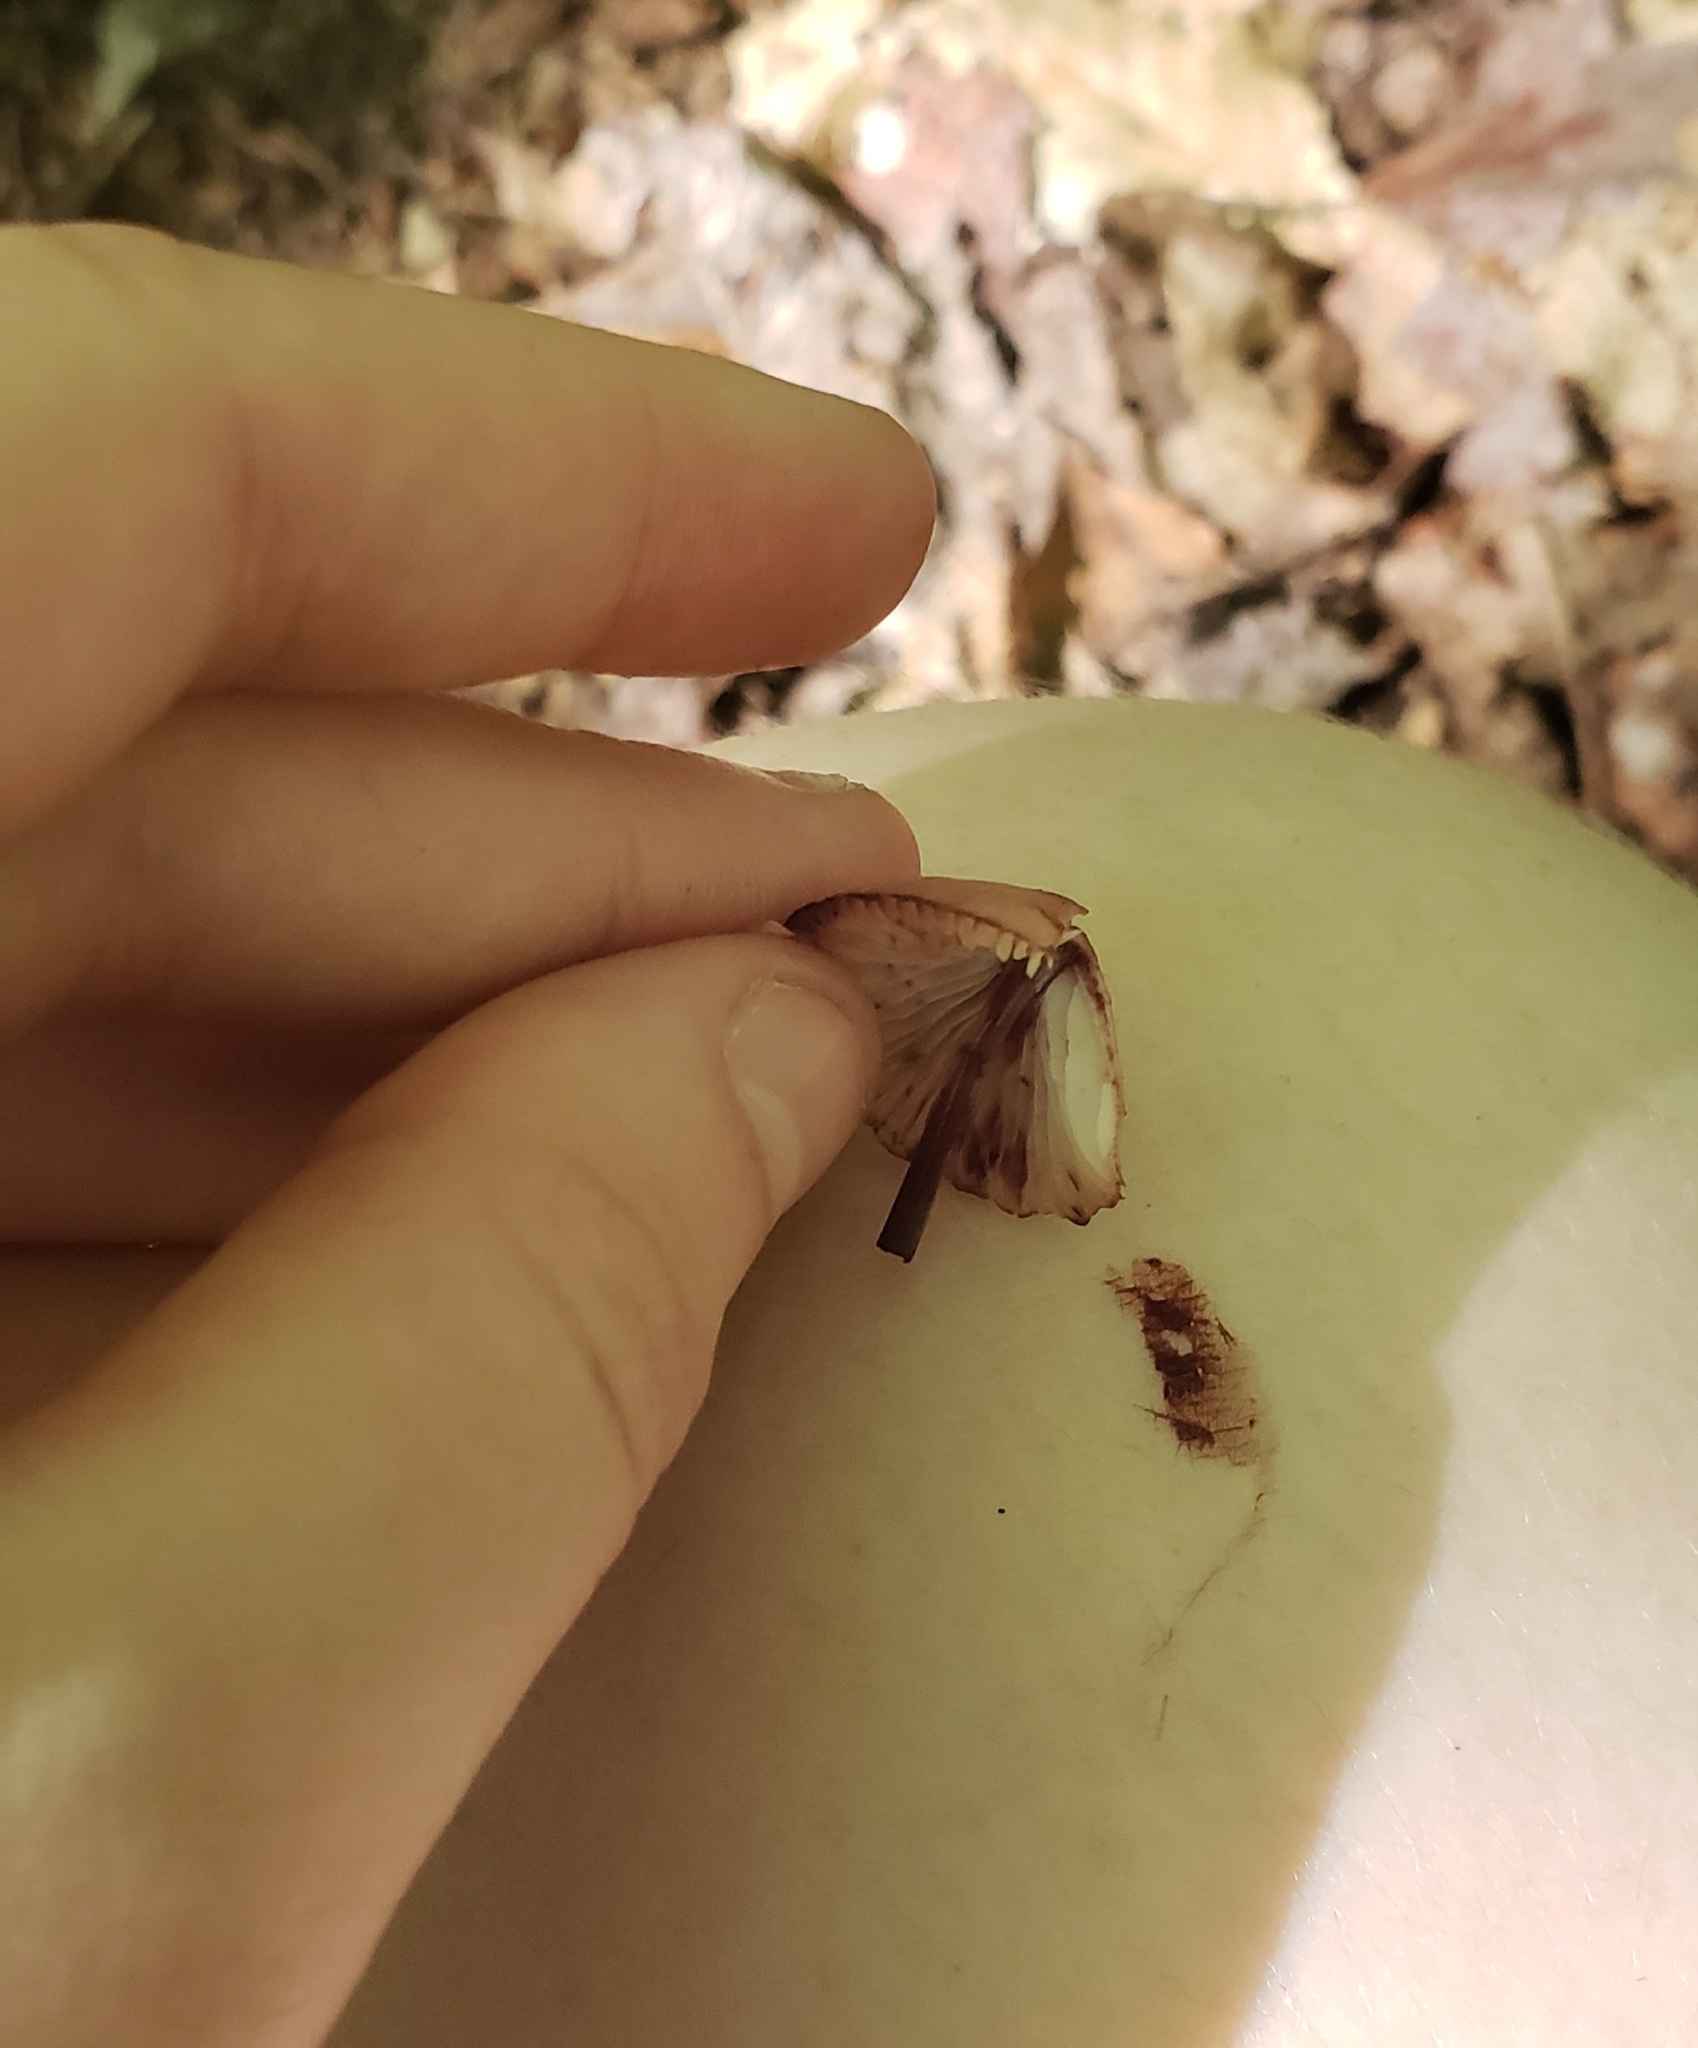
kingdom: Fungi
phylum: Basidiomycota
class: Agaricomycetes
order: Agaricales
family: Mycenaceae
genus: Mycena
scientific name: Mycena haematopus
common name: Burgundydrop bonnet
